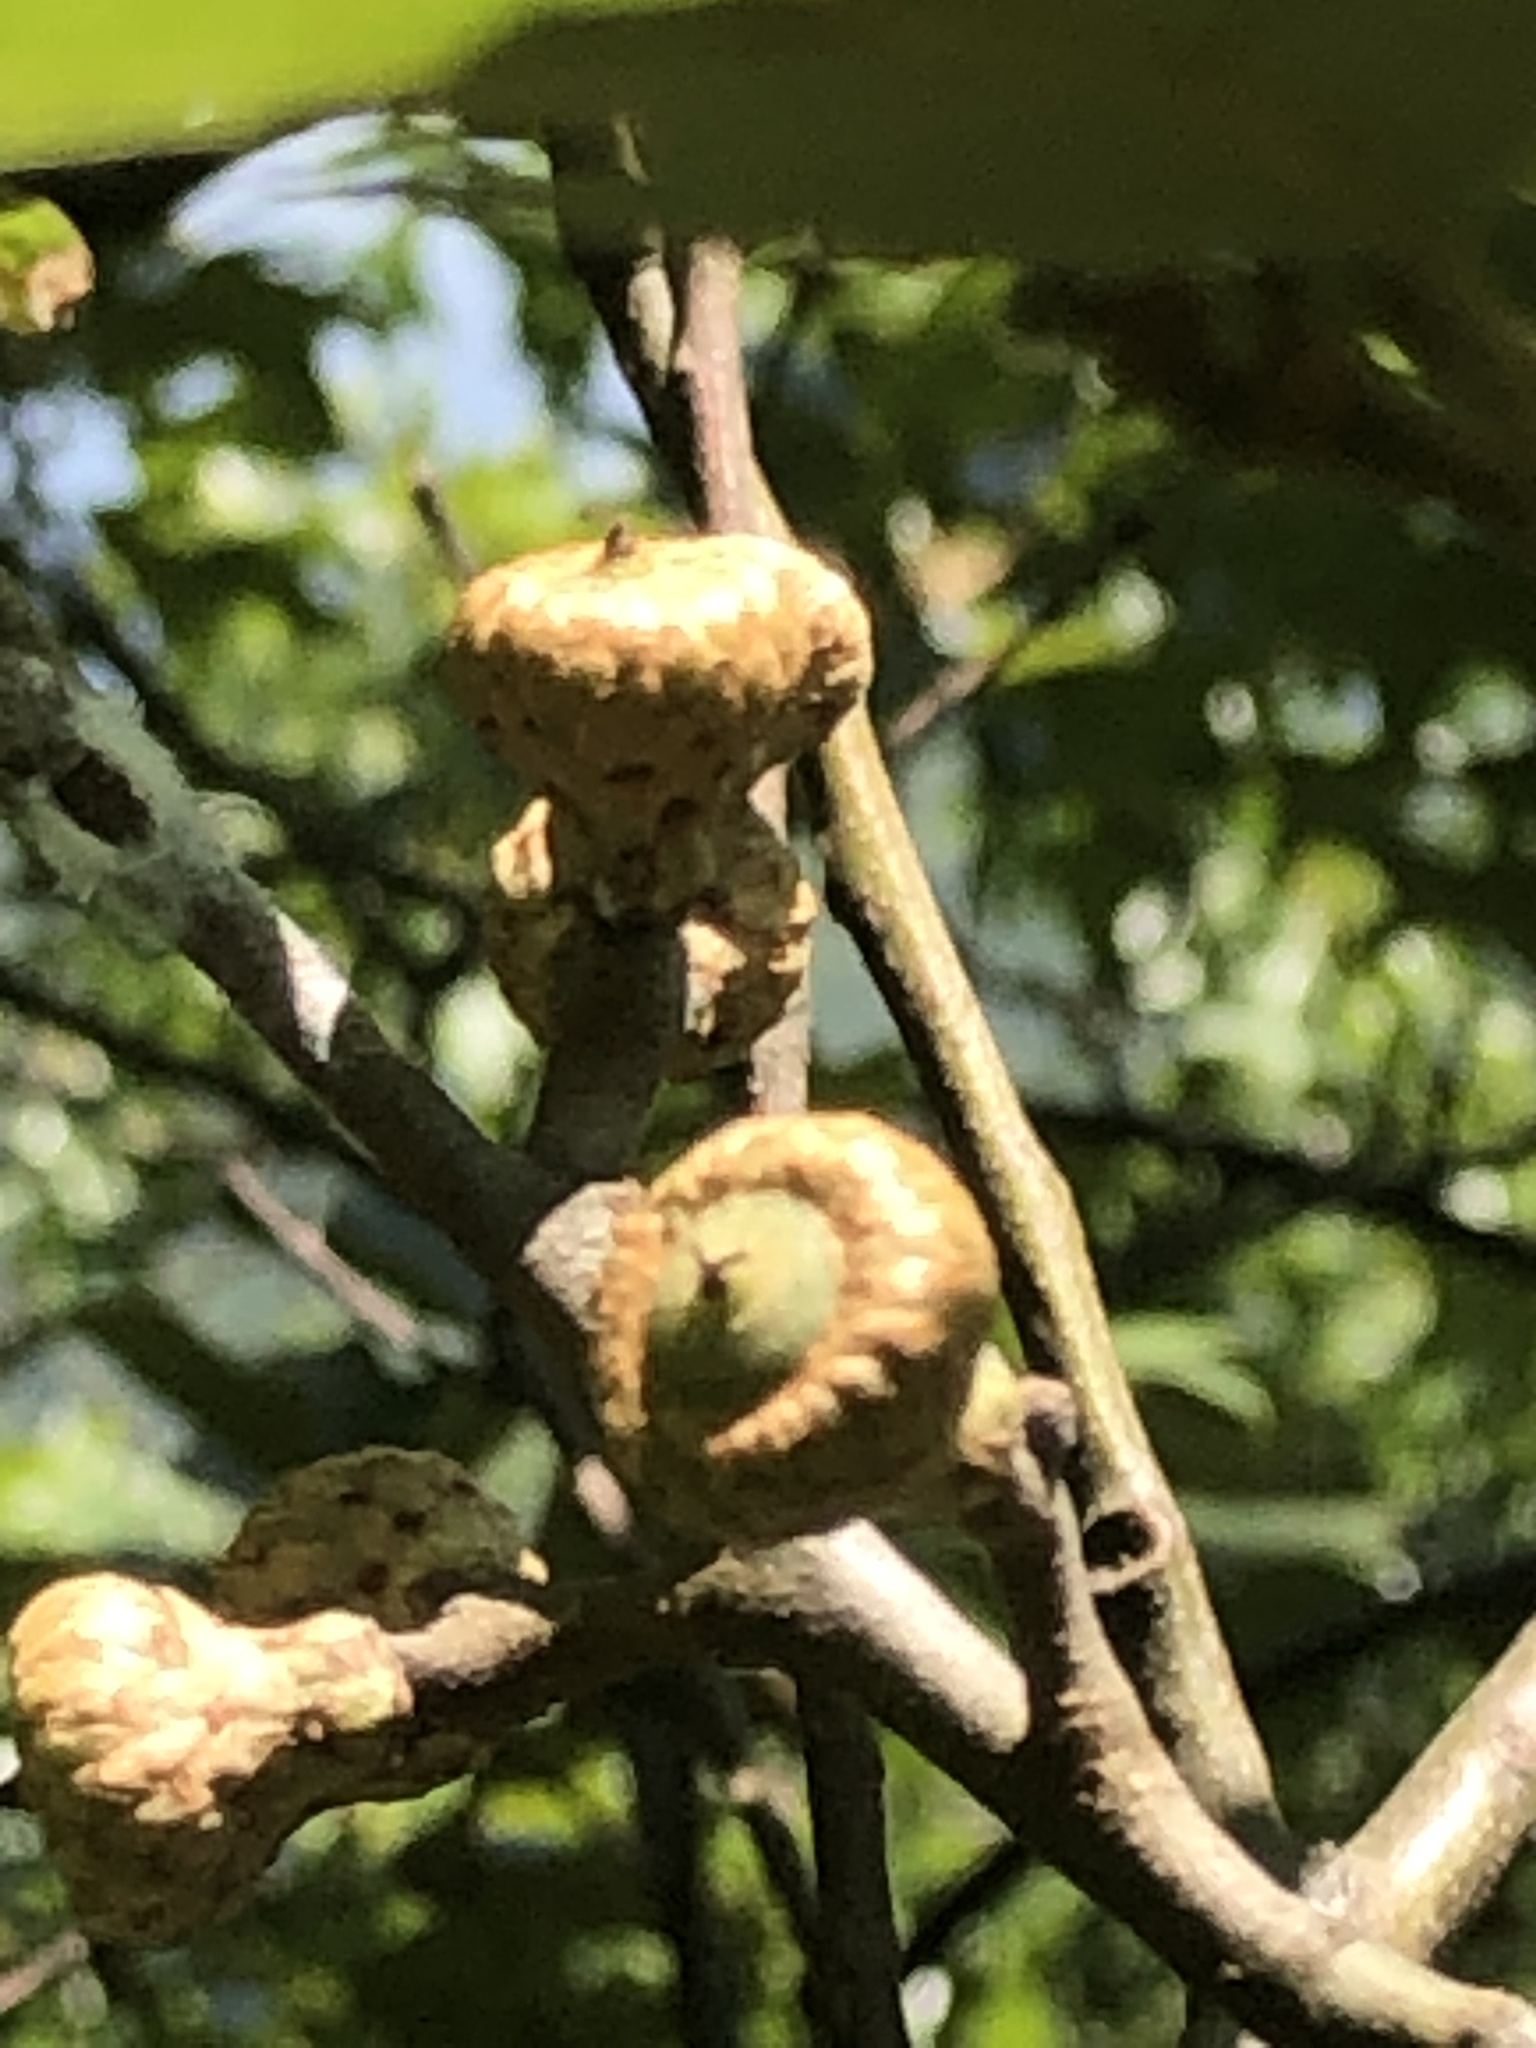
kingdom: Plantae
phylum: Tracheophyta
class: Magnoliopsida
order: Fagales
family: Fagaceae
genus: Quercus
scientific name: Quercus ilicifolia
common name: Bear oak
